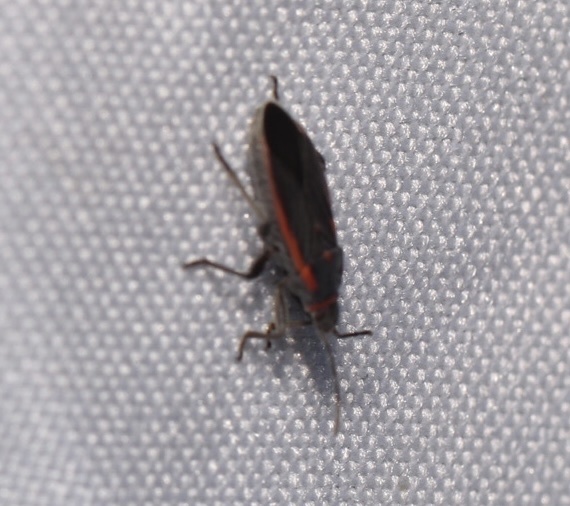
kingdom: Animalia
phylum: Arthropoda
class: Insecta
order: Hemiptera
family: Lygaeidae
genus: Melacoryphus
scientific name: Melacoryphus lateralis
